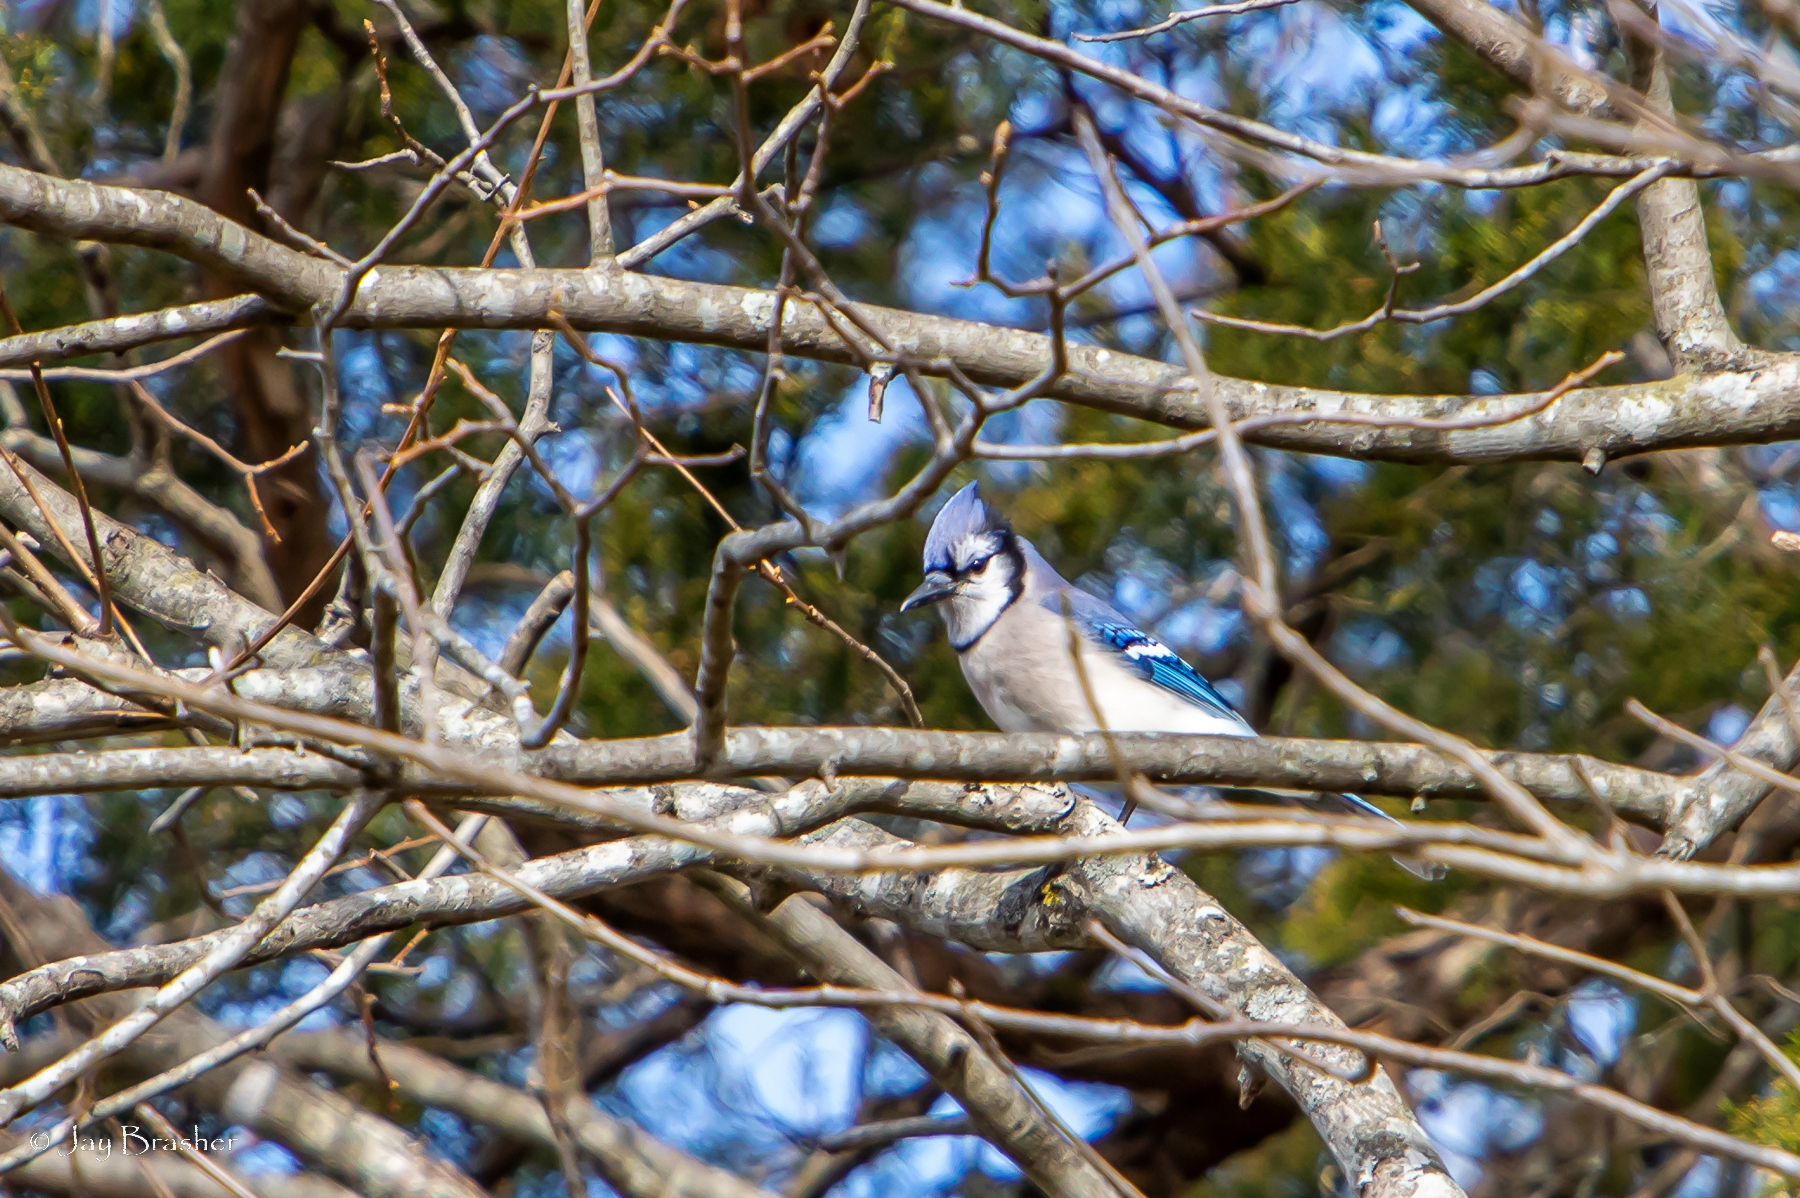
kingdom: Animalia
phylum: Chordata
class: Aves
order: Passeriformes
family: Corvidae
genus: Cyanocitta
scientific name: Cyanocitta cristata
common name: Blue jay
